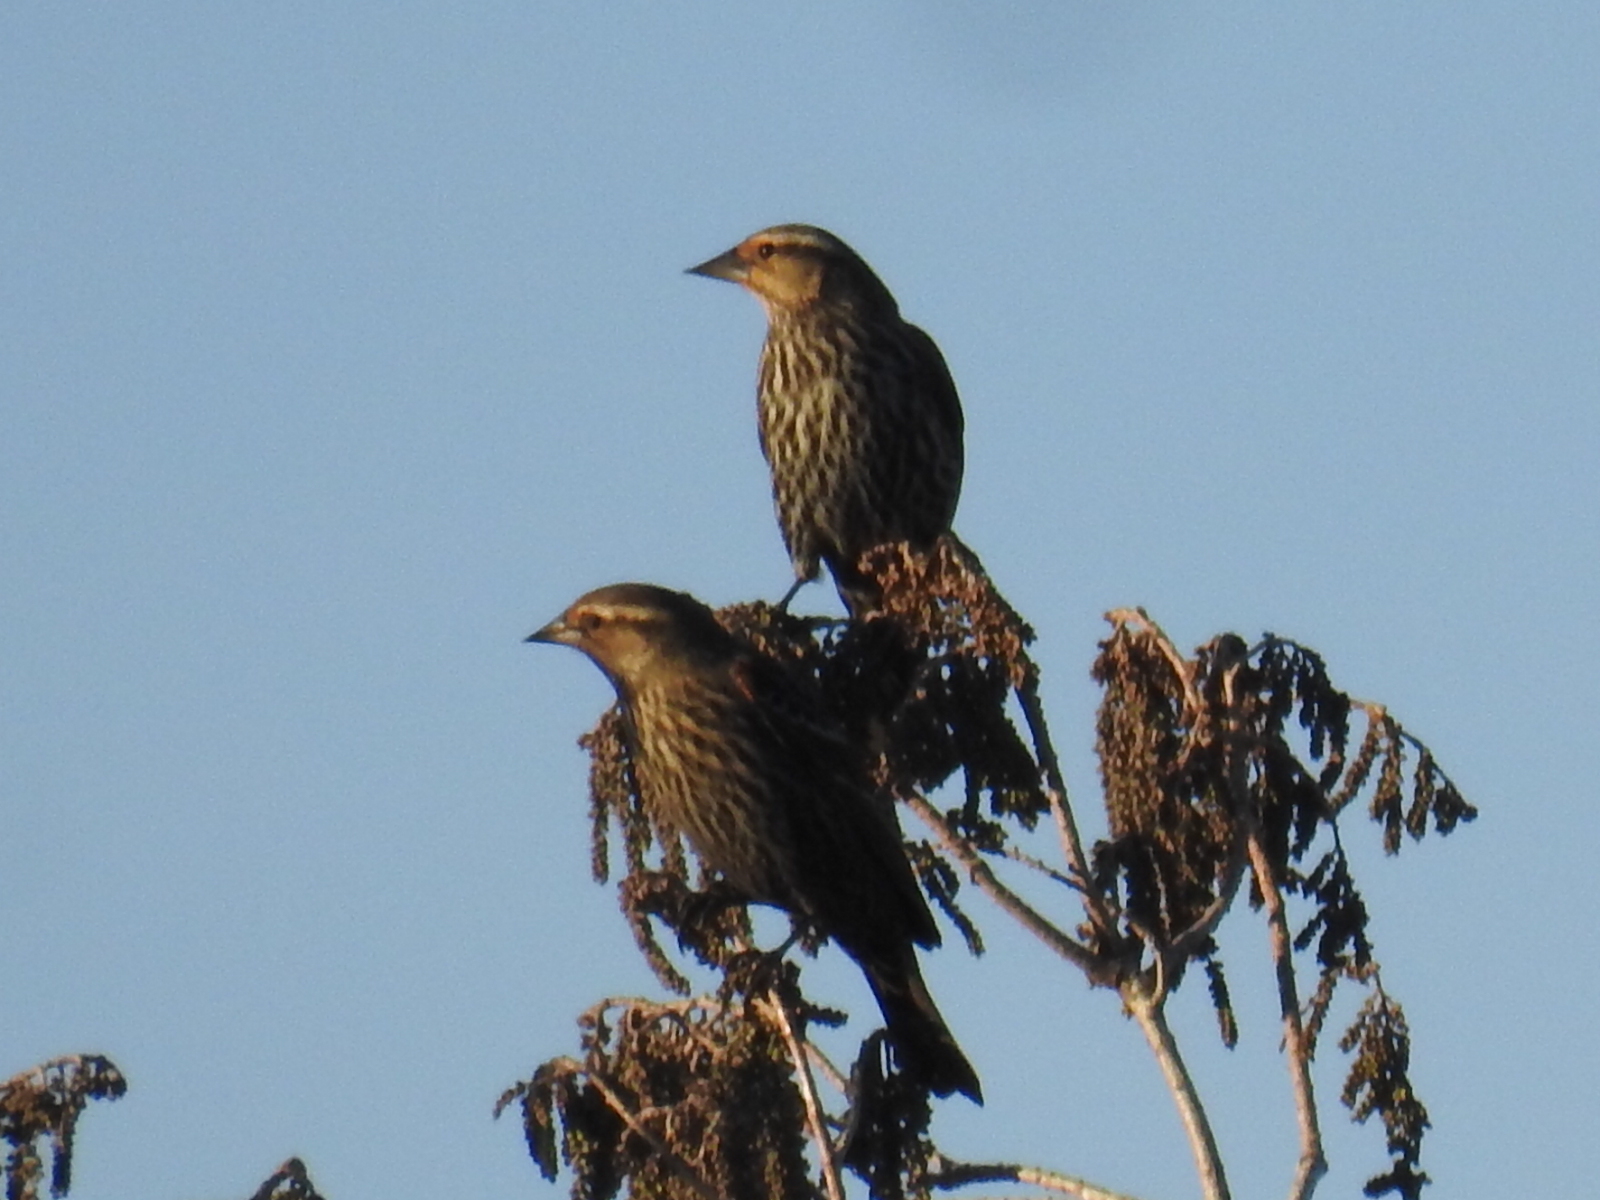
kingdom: Animalia
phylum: Chordata
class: Aves
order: Passeriformes
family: Icteridae
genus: Agelaius
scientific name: Agelaius phoeniceus
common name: Red-winged blackbird
